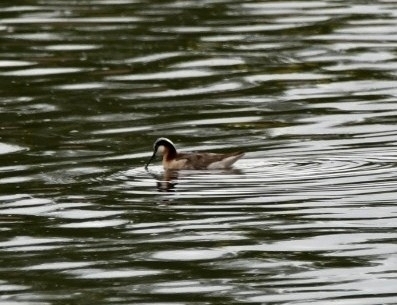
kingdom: Animalia
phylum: Chordata
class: Aves
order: Charadriiformes
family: Scolopacidae
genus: Phalaropus
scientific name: Phalaropus tricolor
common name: Wilson's phalarope
